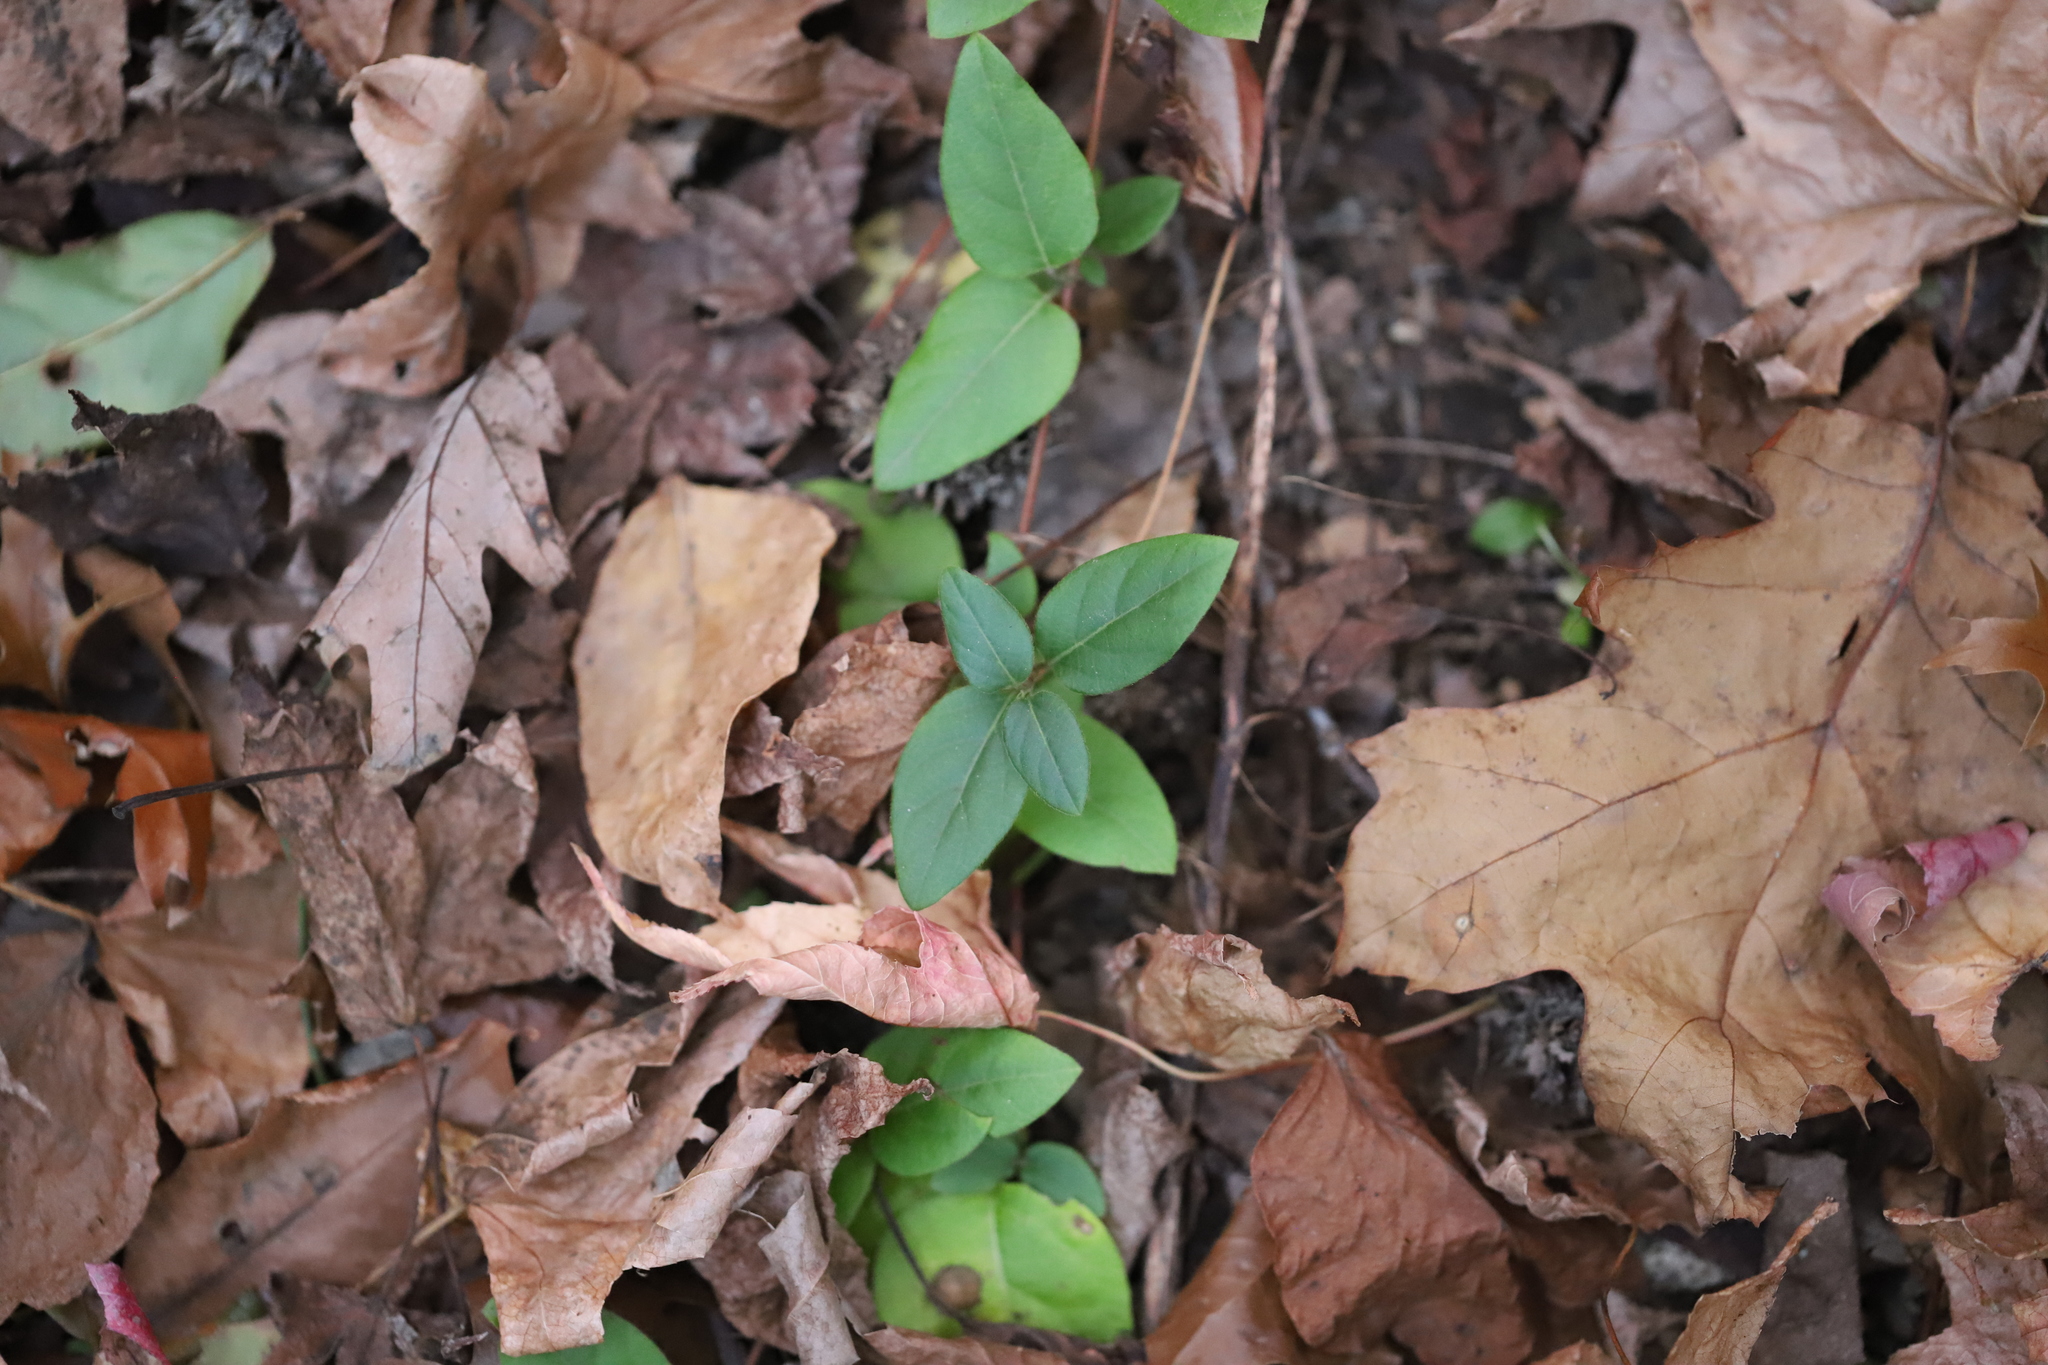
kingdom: Plantae
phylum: Tracheophyta
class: Magnoliopsida
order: Dipsacales
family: Caprifoliaceae
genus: Lonicera
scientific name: Lonicera japonica
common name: Japanese honeysuckle
